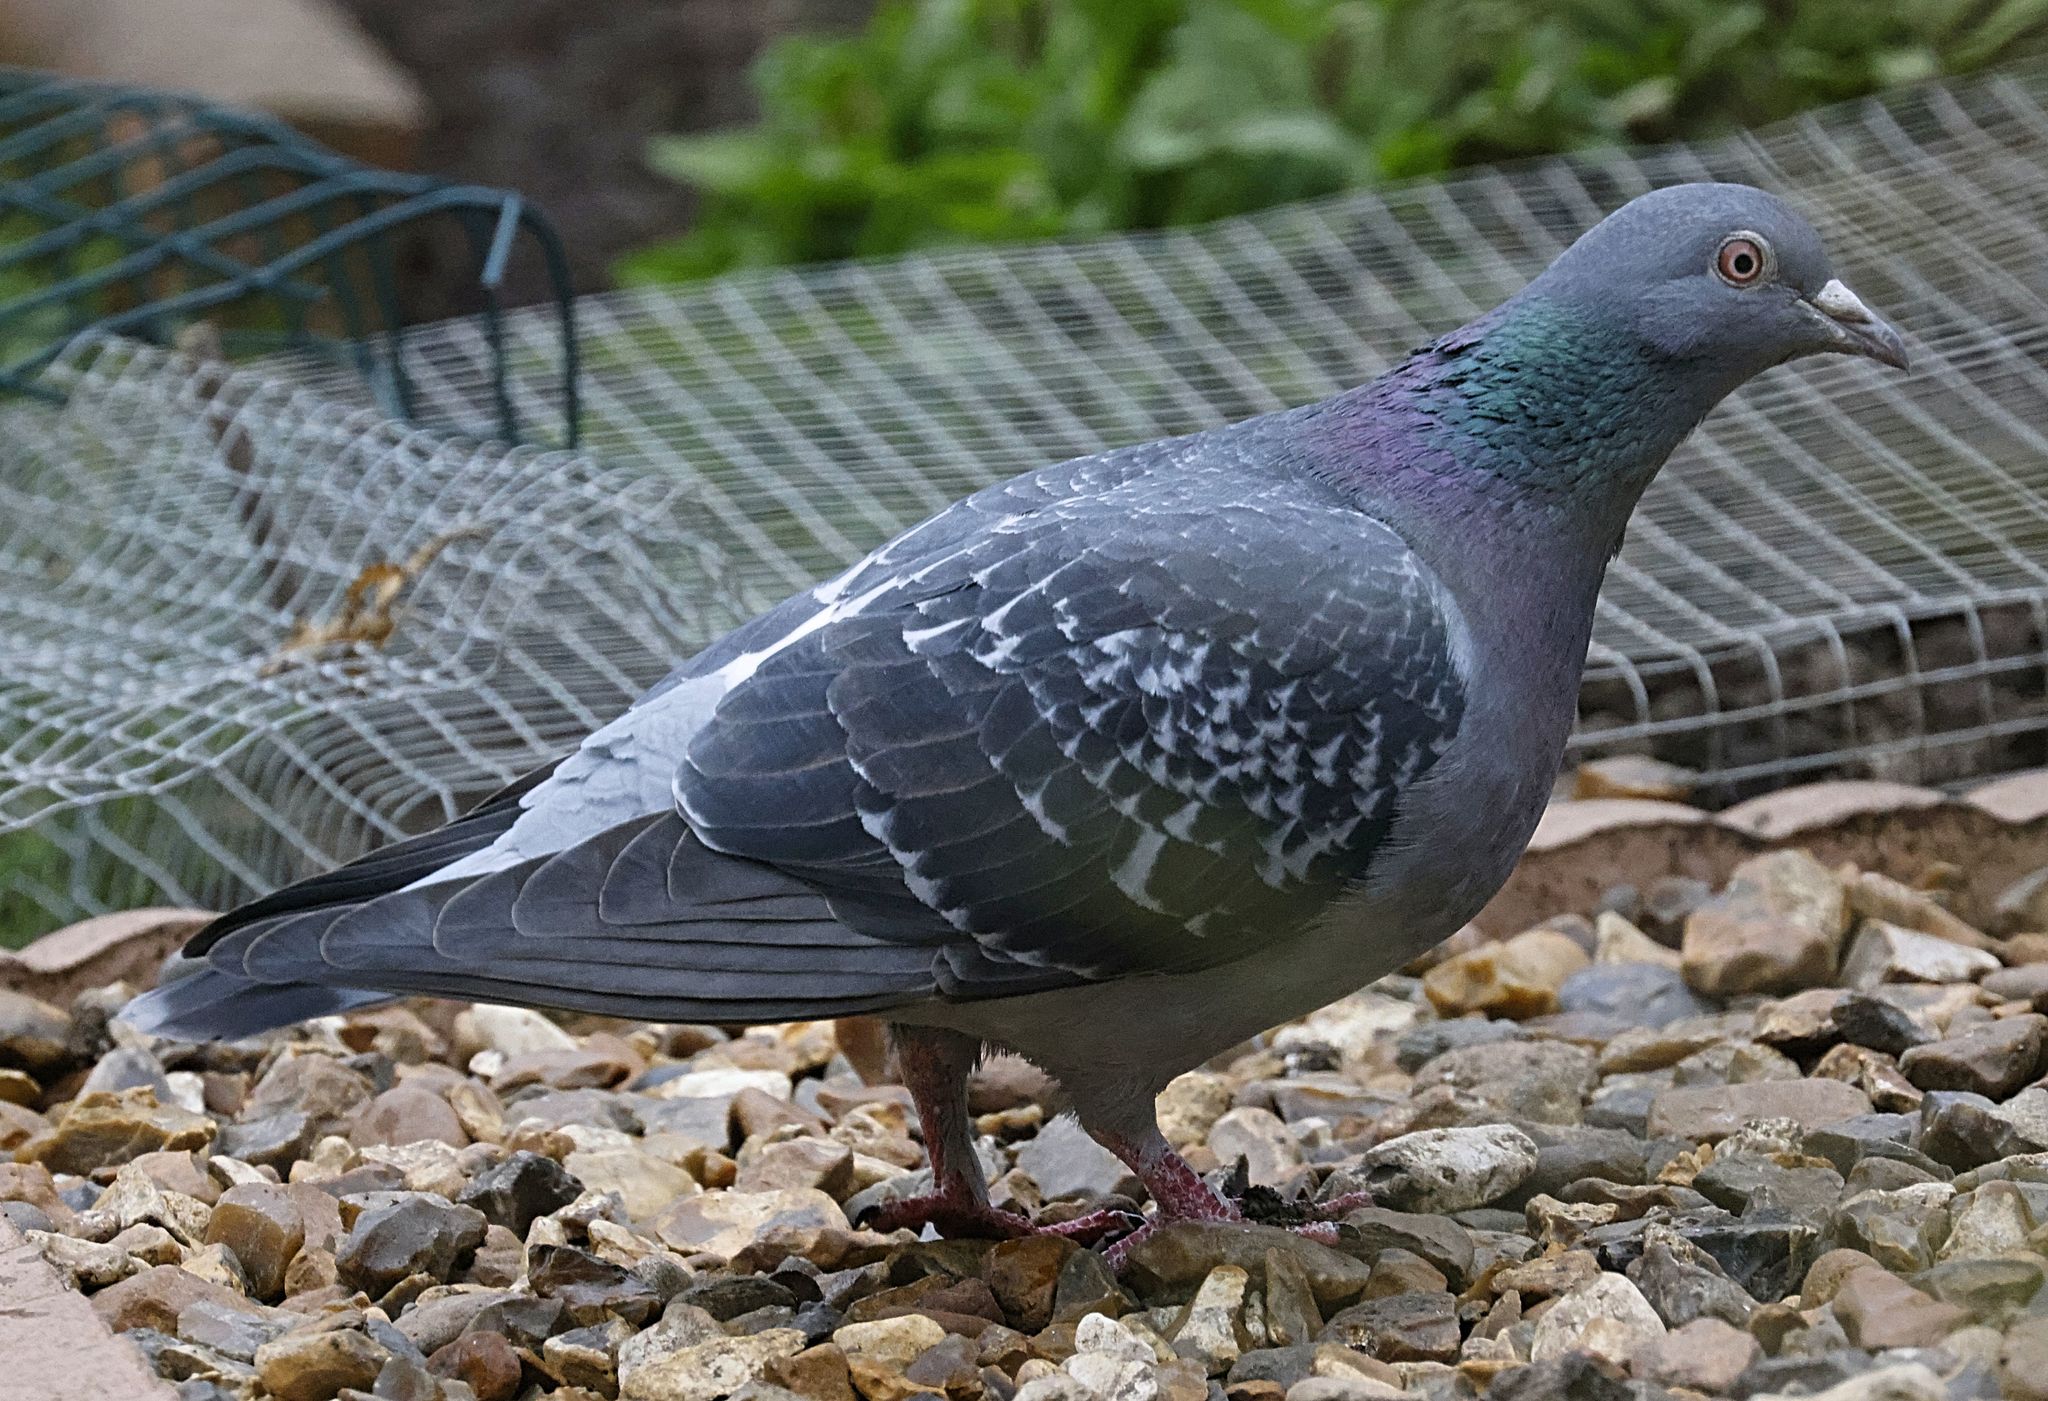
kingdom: Animalia
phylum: Chordata
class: Aves
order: Columbiformes
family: Columbidae
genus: Columba
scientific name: Columba livia
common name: Rock pigeon
